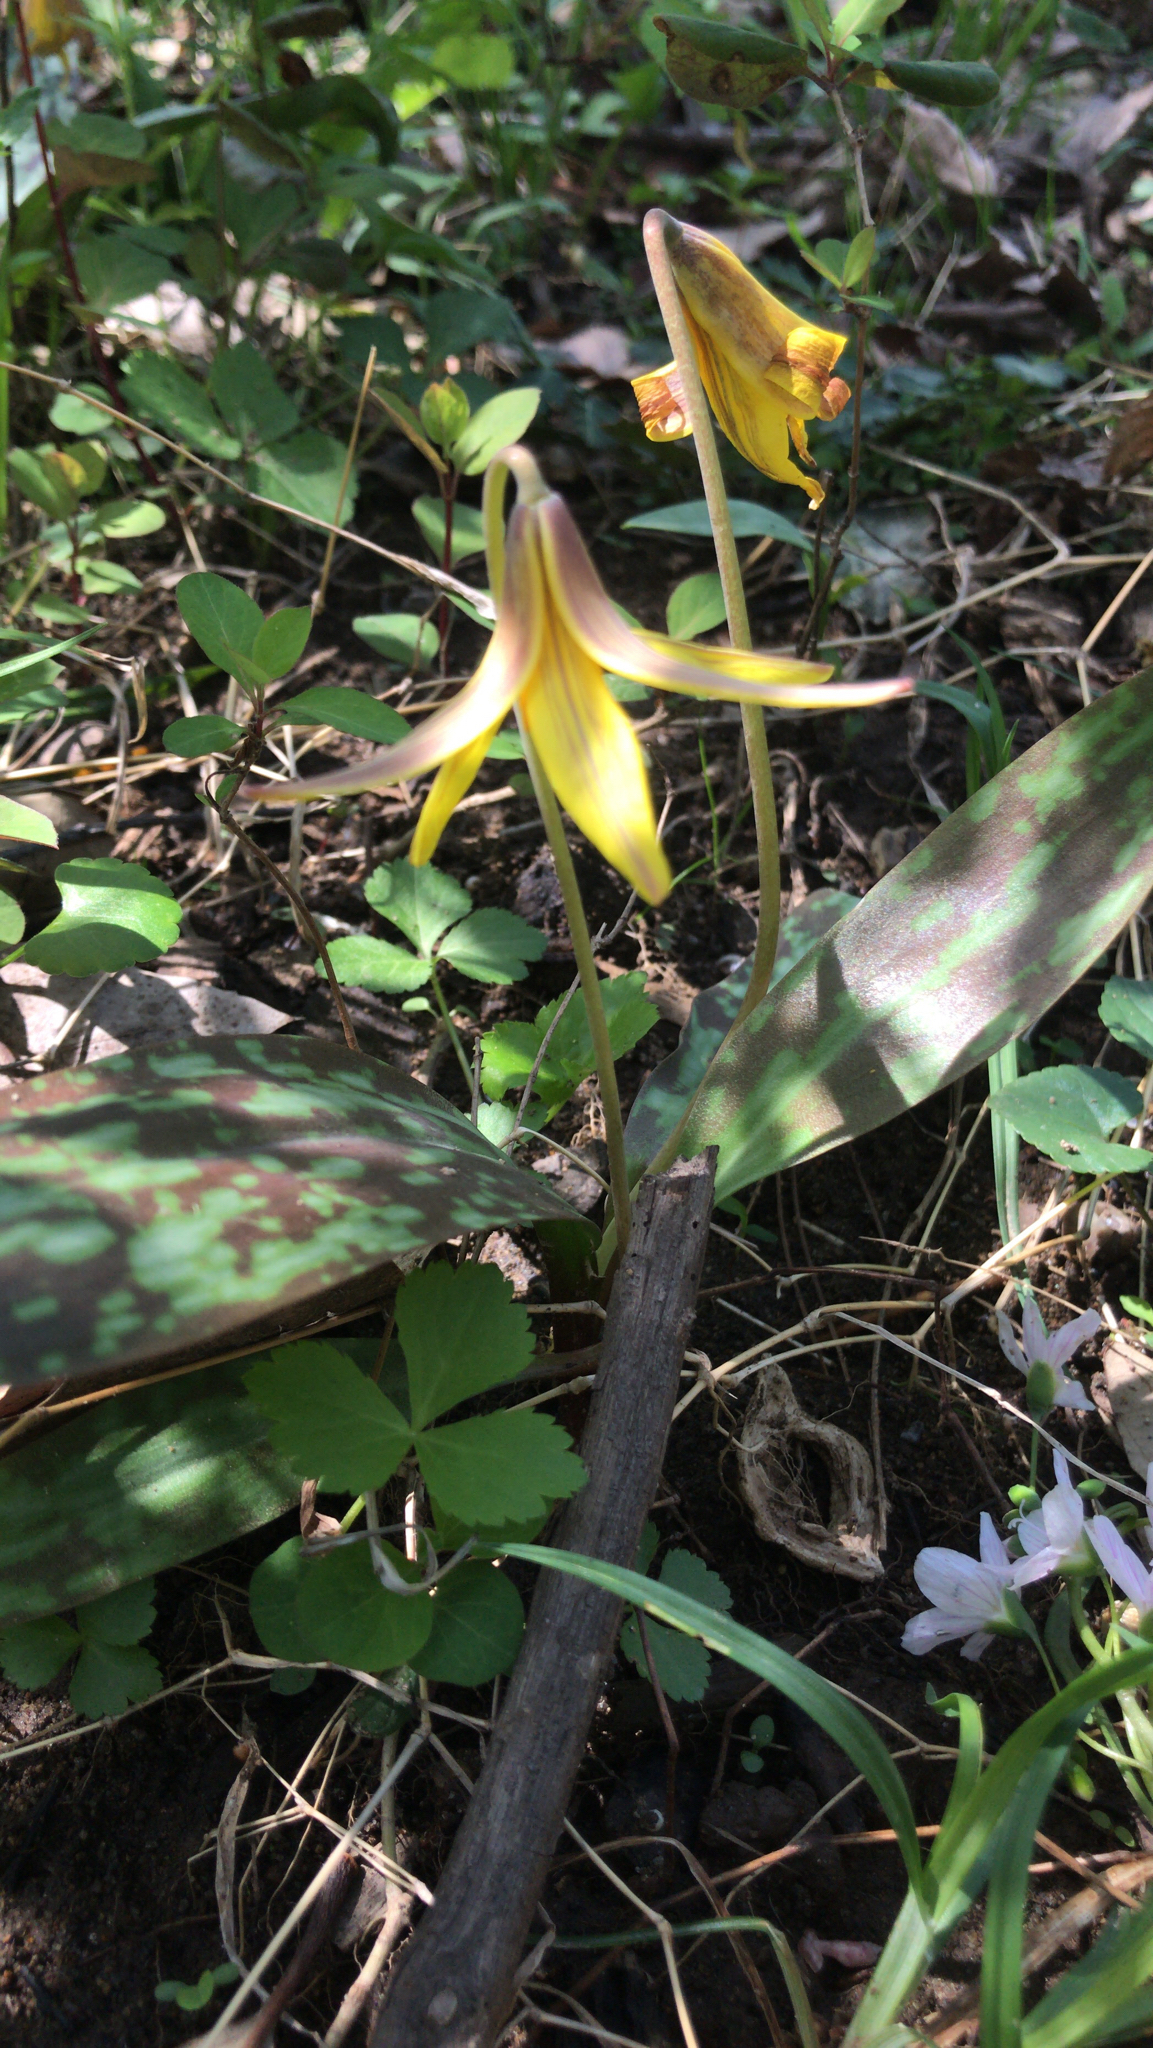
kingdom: Plantae
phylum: Tracheophyta
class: Liliopsida
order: Liliales
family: Liliaceae
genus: Erythronium
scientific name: Erythronium americanum
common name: Yellow adder's-tongue
